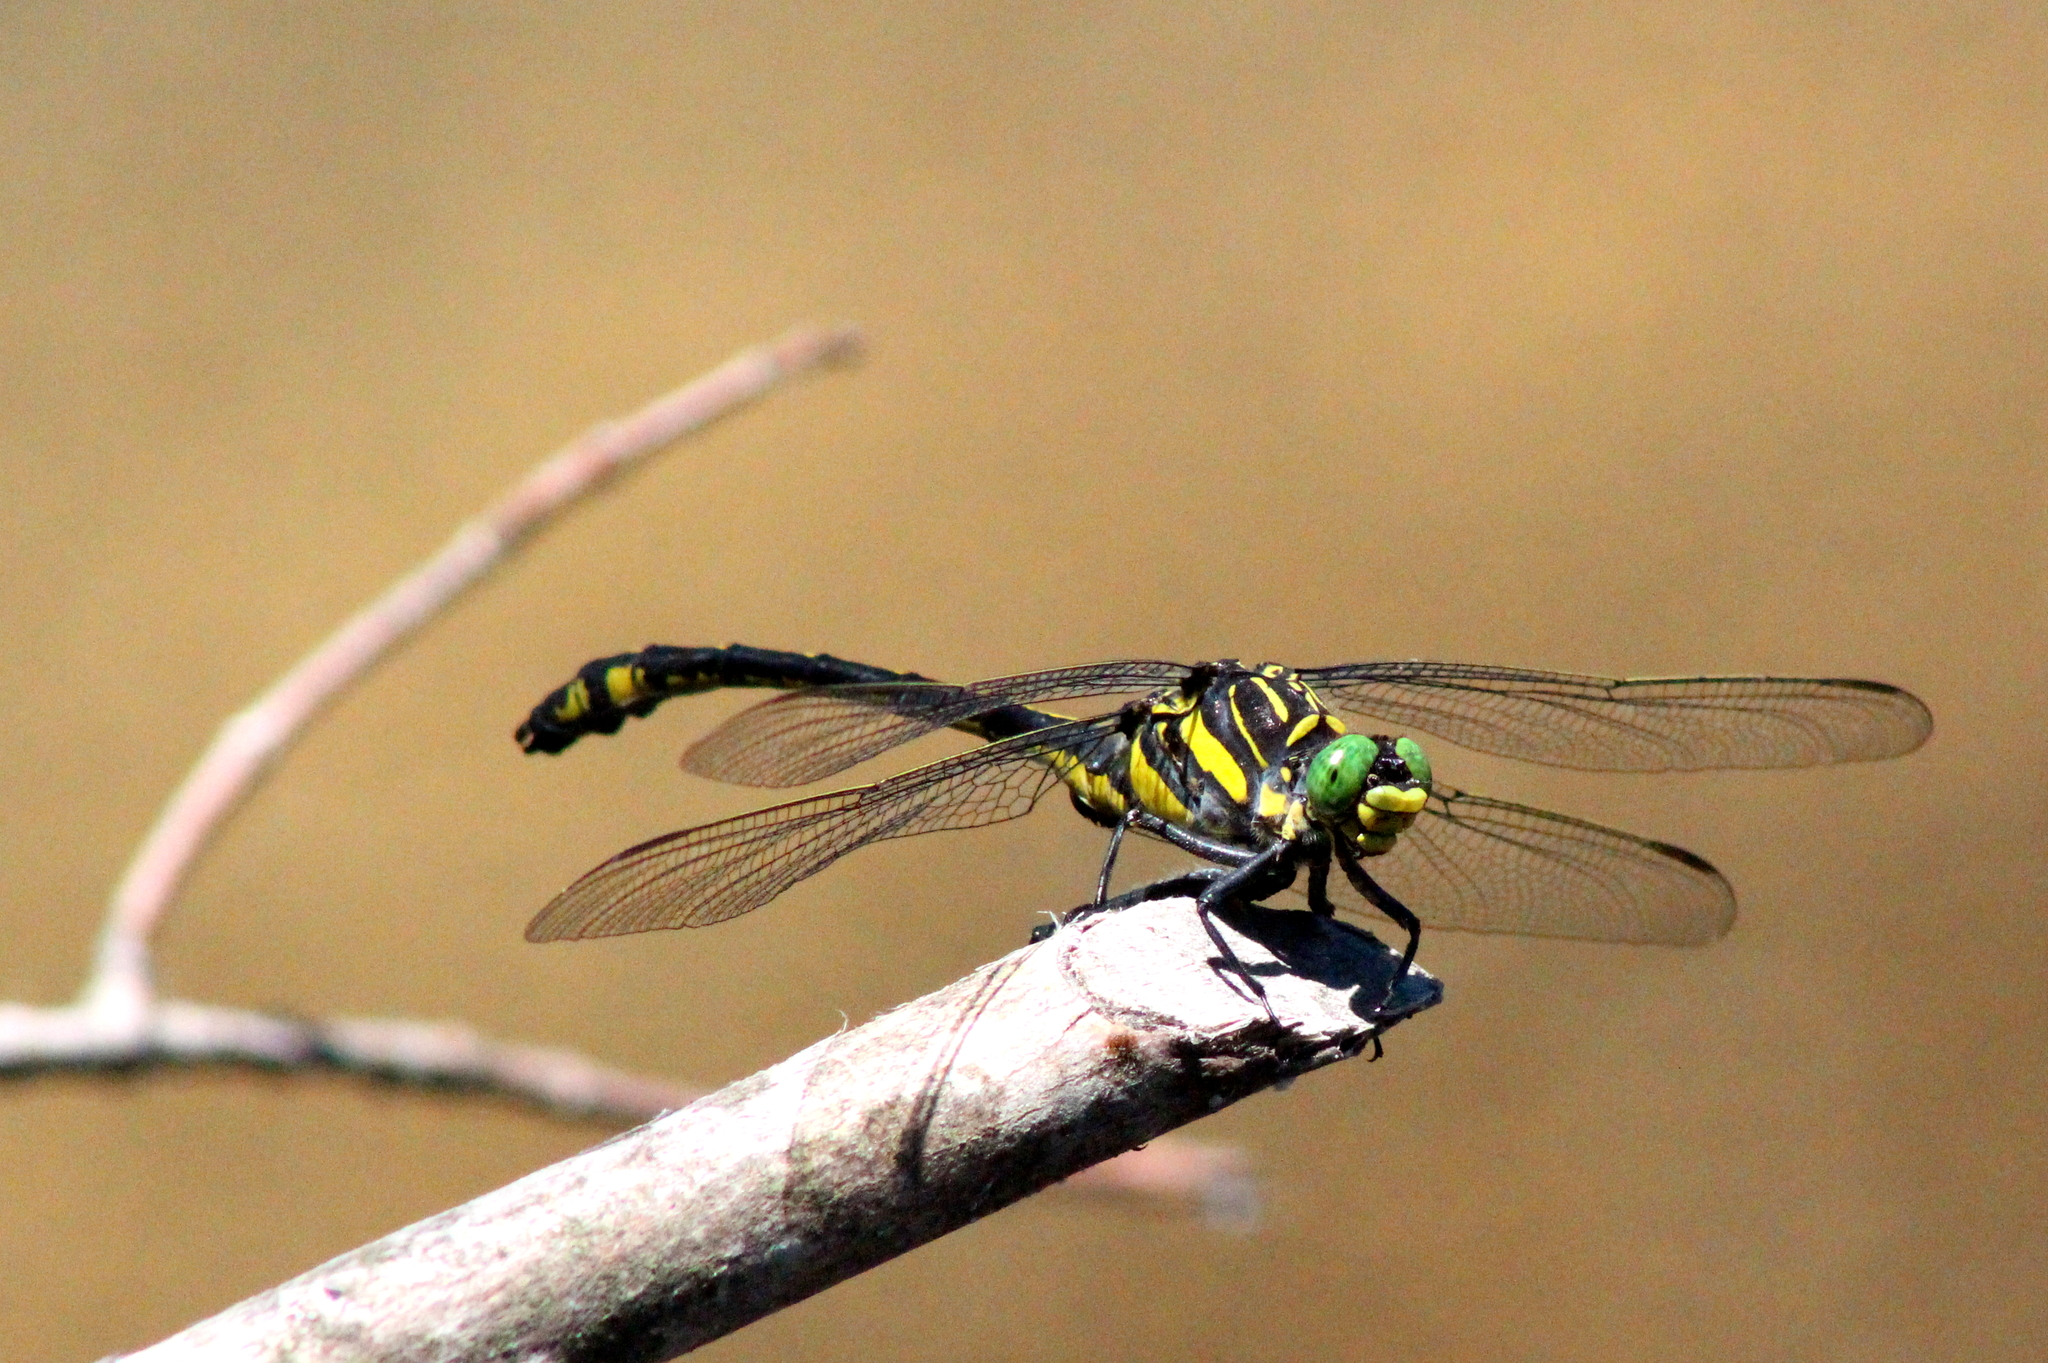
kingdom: Animalia
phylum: Arthropoda
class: Insecta
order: Odonata
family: Gomphidae
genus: Hagenius
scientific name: Hagenius brevistylus
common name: Dragonhunter
